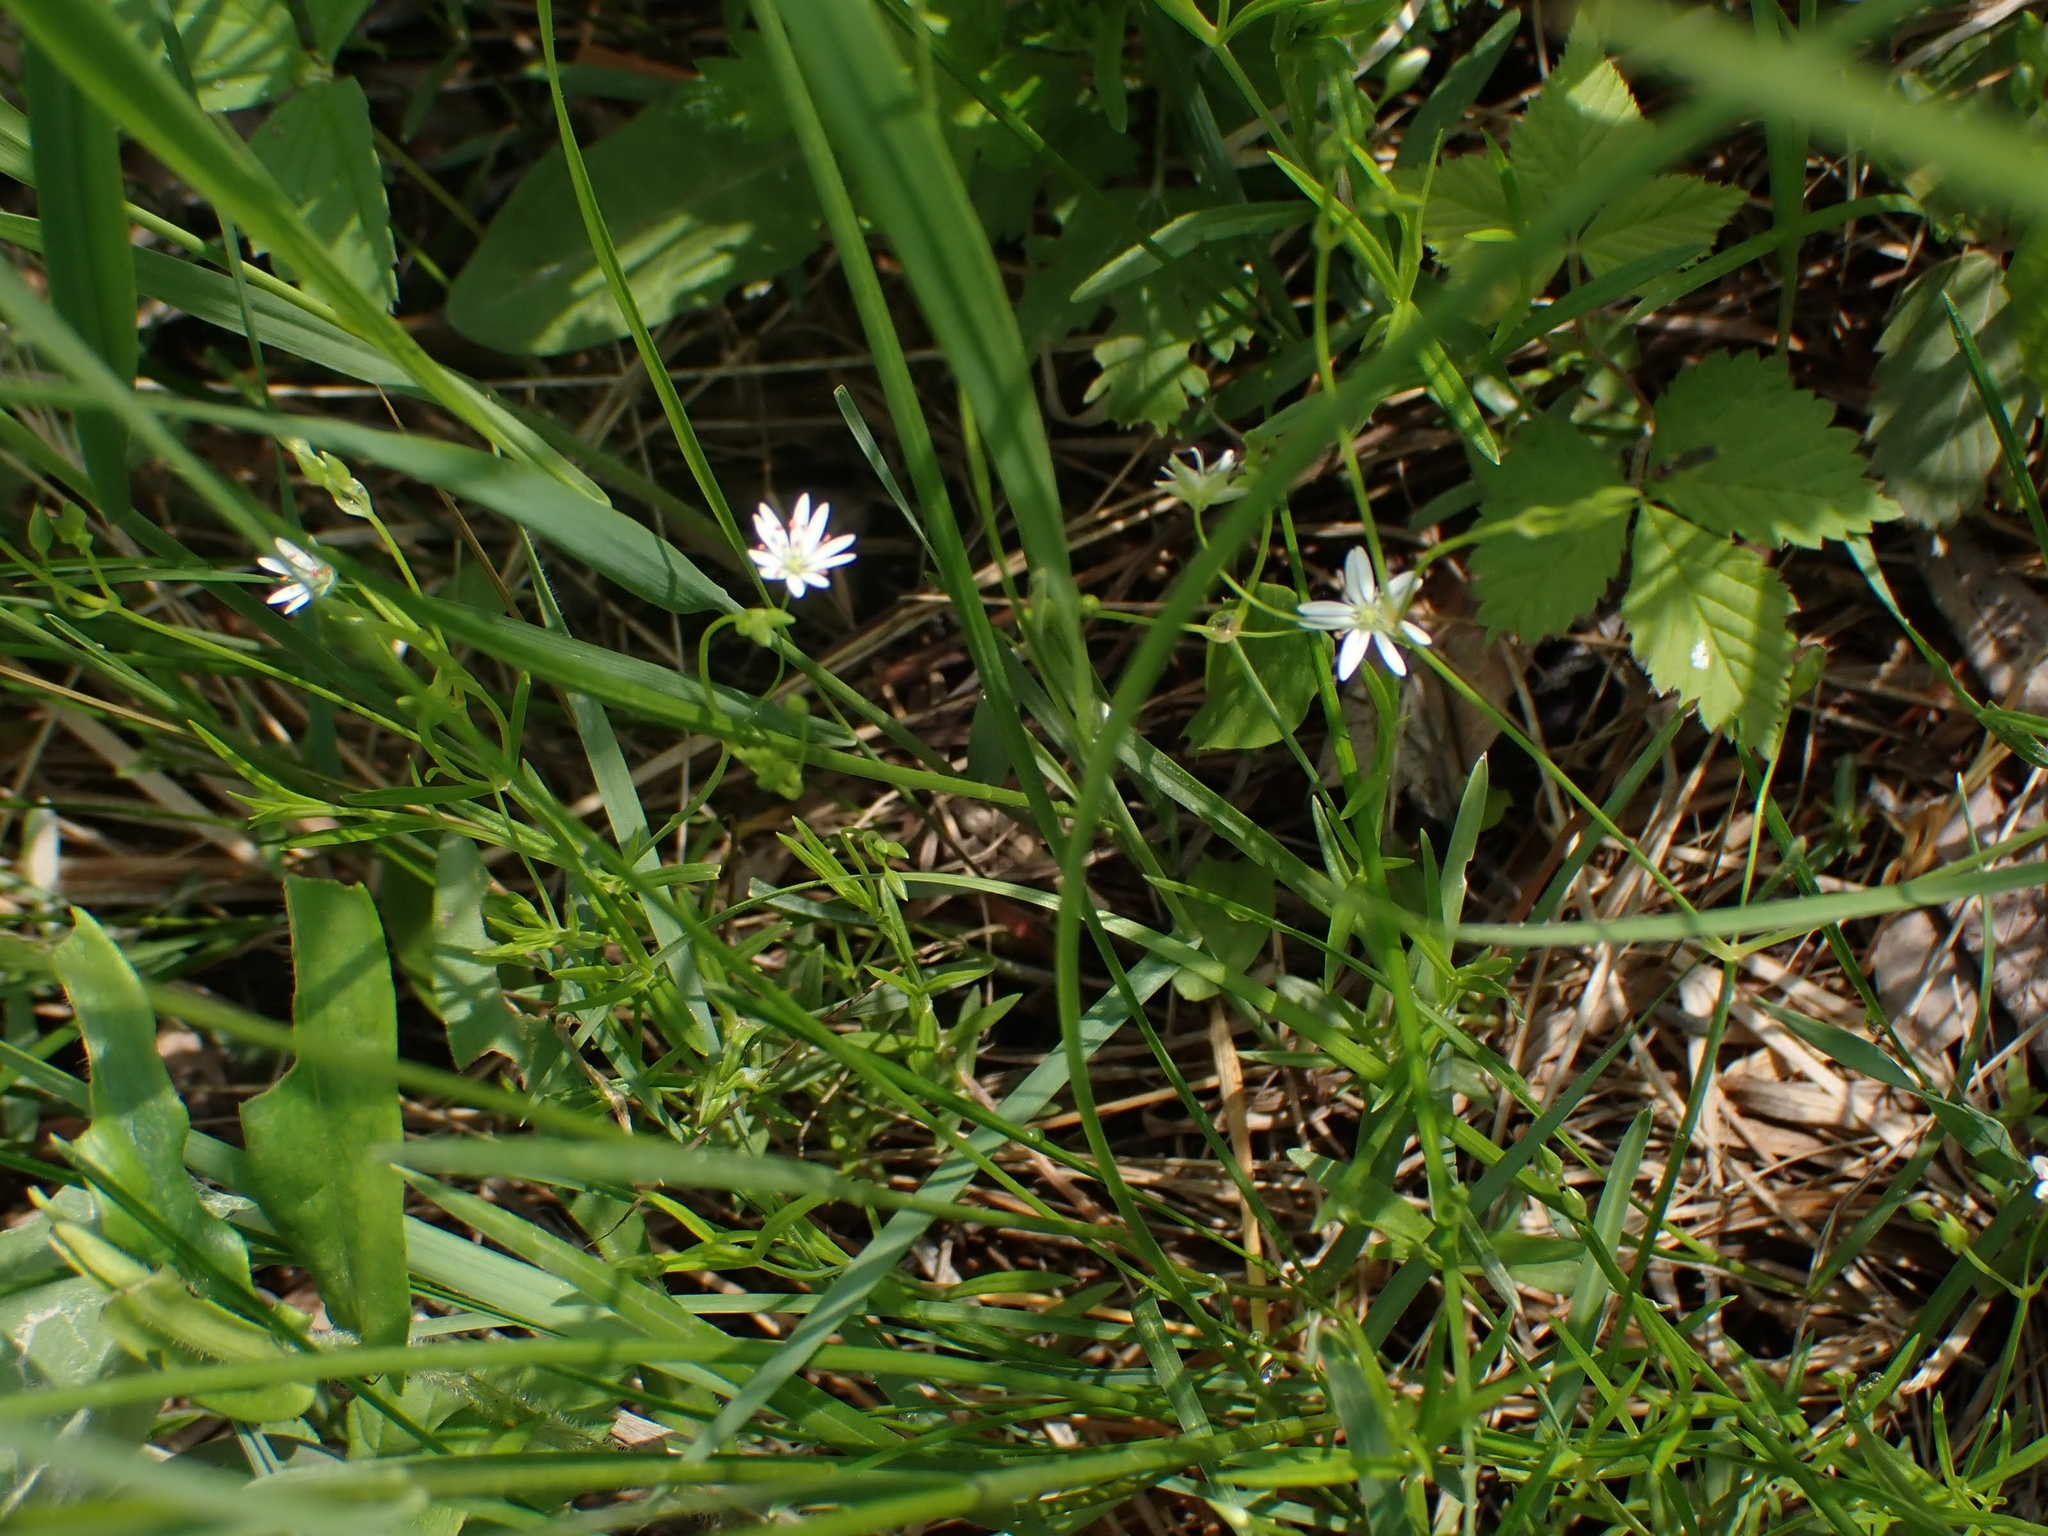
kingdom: Plantae
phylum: Tracheophyta
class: Magnoliopsida
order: Caryophyllales
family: Caryophyllaceae
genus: Stellaria
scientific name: Stellaria longifolia
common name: Long-leaved chickweed
